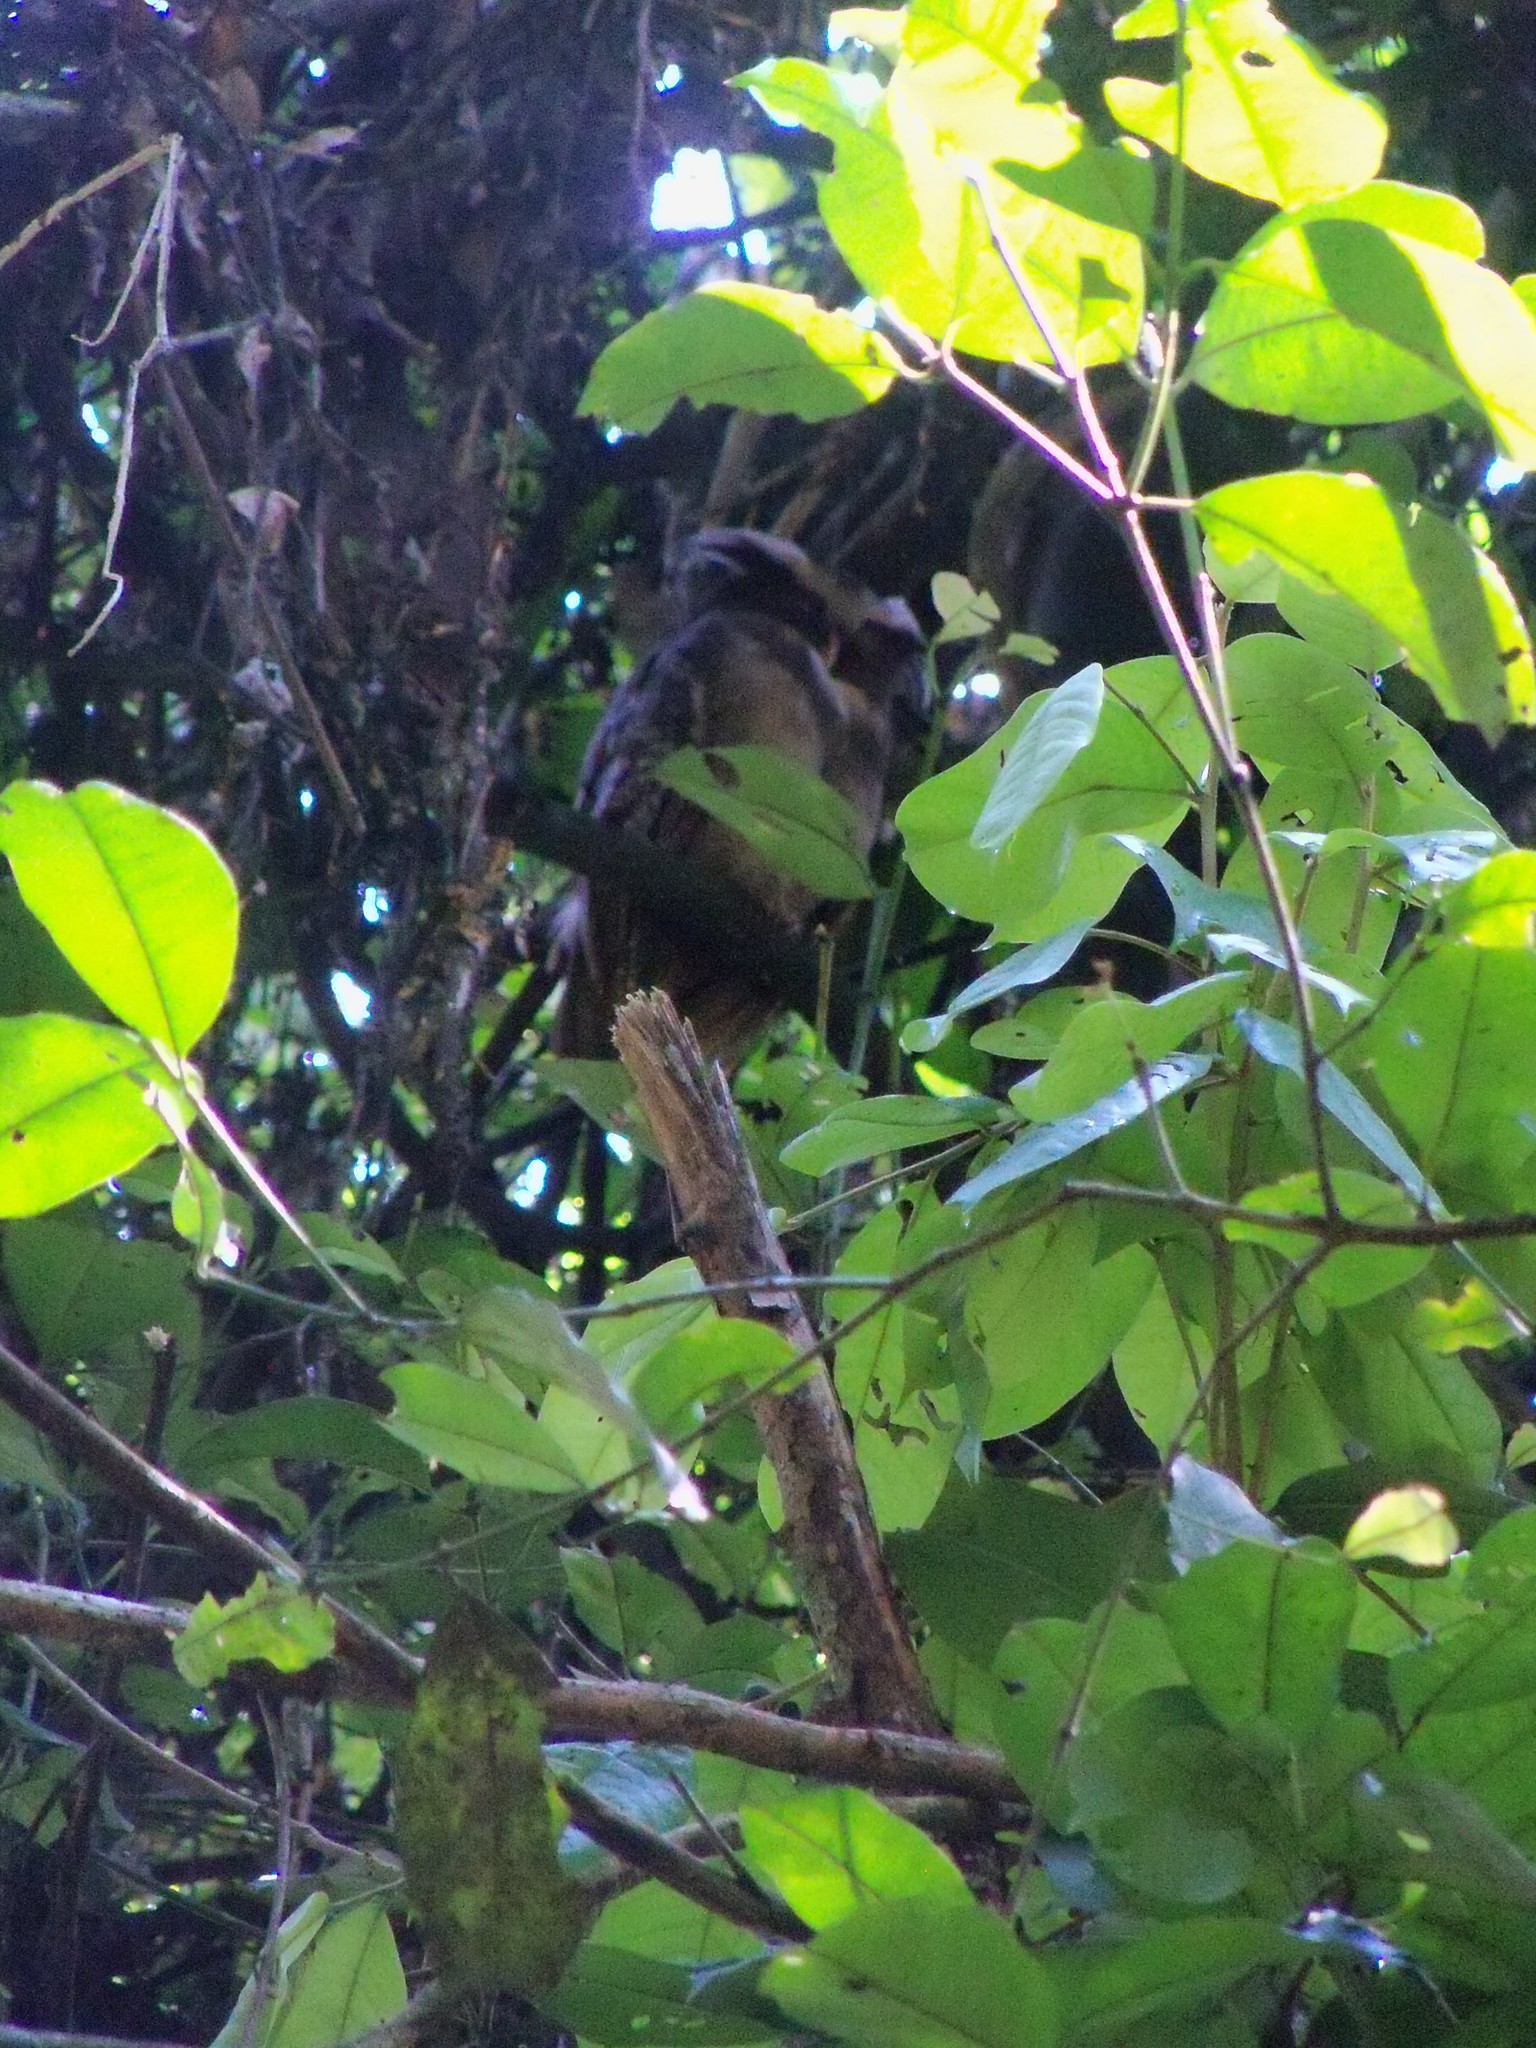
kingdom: Animalia
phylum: Chordata
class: Aves
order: Strigiformes
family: Strigidae
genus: Lophostrix
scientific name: Lophostrix cristata
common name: Crested owl
